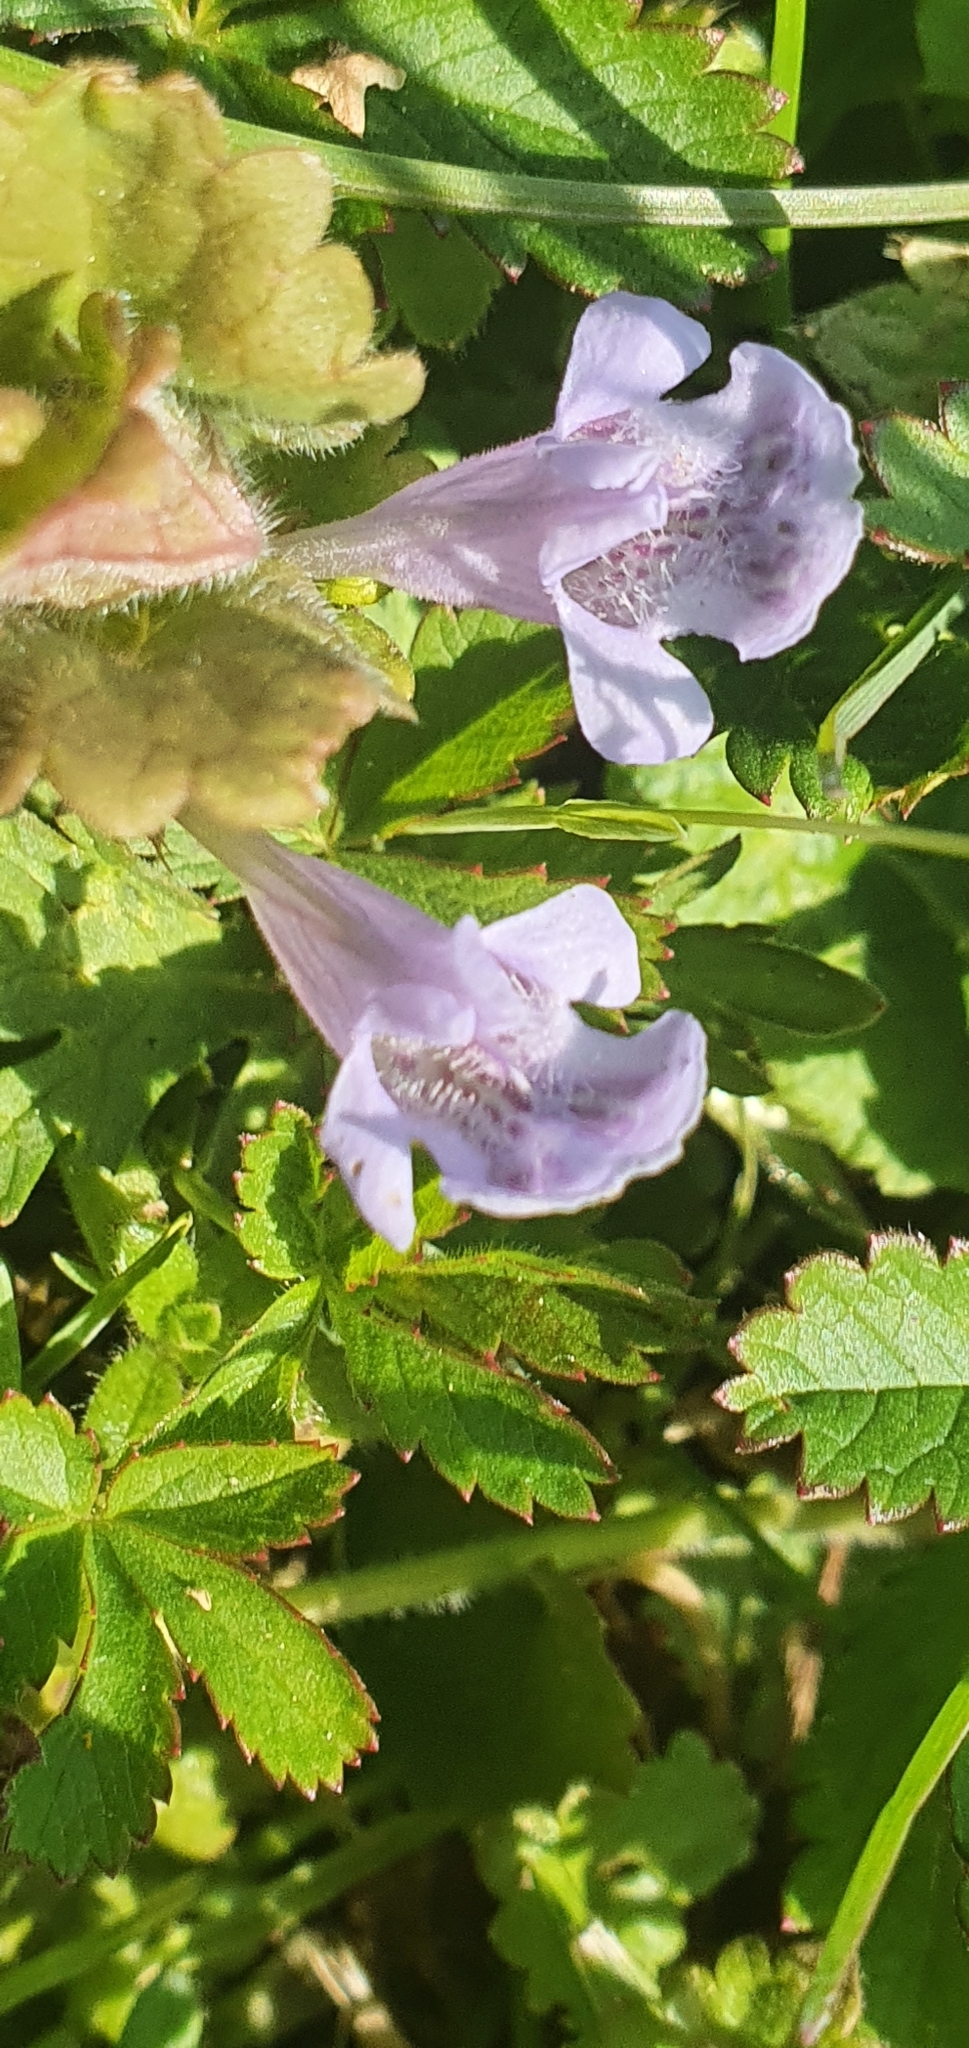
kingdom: Plantae
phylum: Tracheophyta
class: Magnoliopsida
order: Lamiales
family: Lamiaceae
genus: Glechoma
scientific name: Glechoma hederacea
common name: Ground ivy
